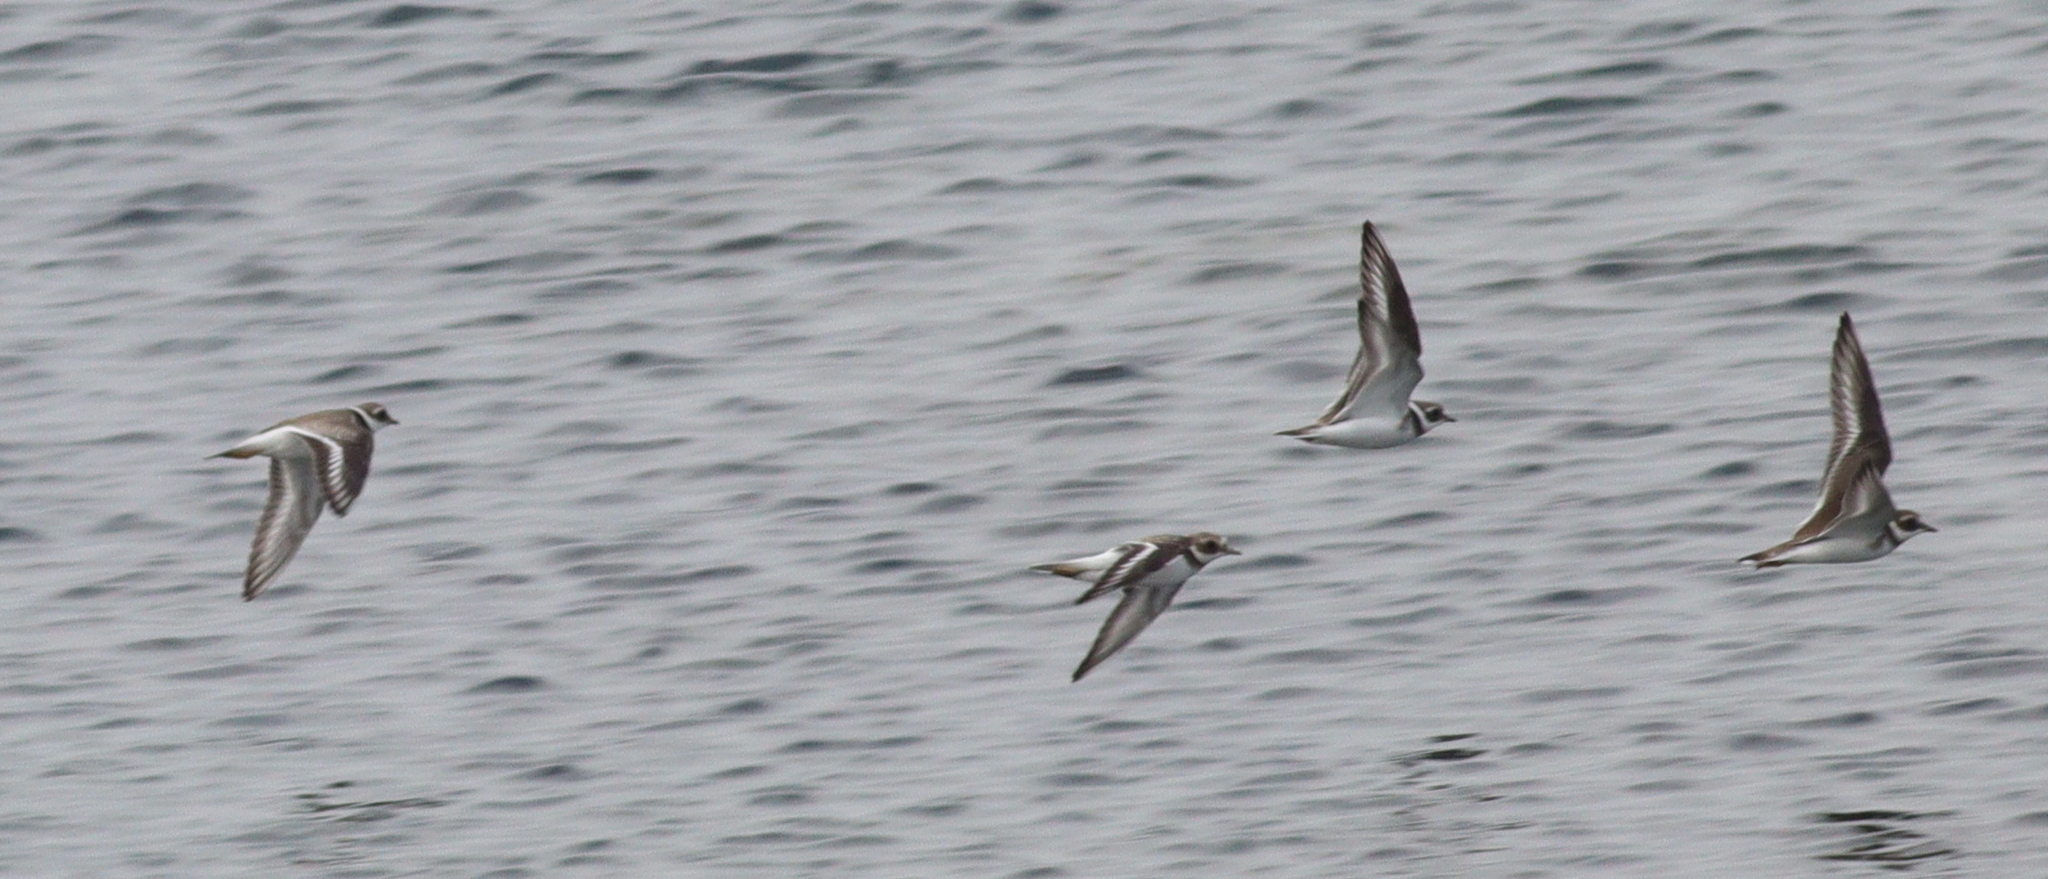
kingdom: Animalia
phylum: Chordata
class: Aves
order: Charadriiformes
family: Charadriidae
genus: Charadrius
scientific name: Charadrius hiaticula
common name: Common ringed plover
